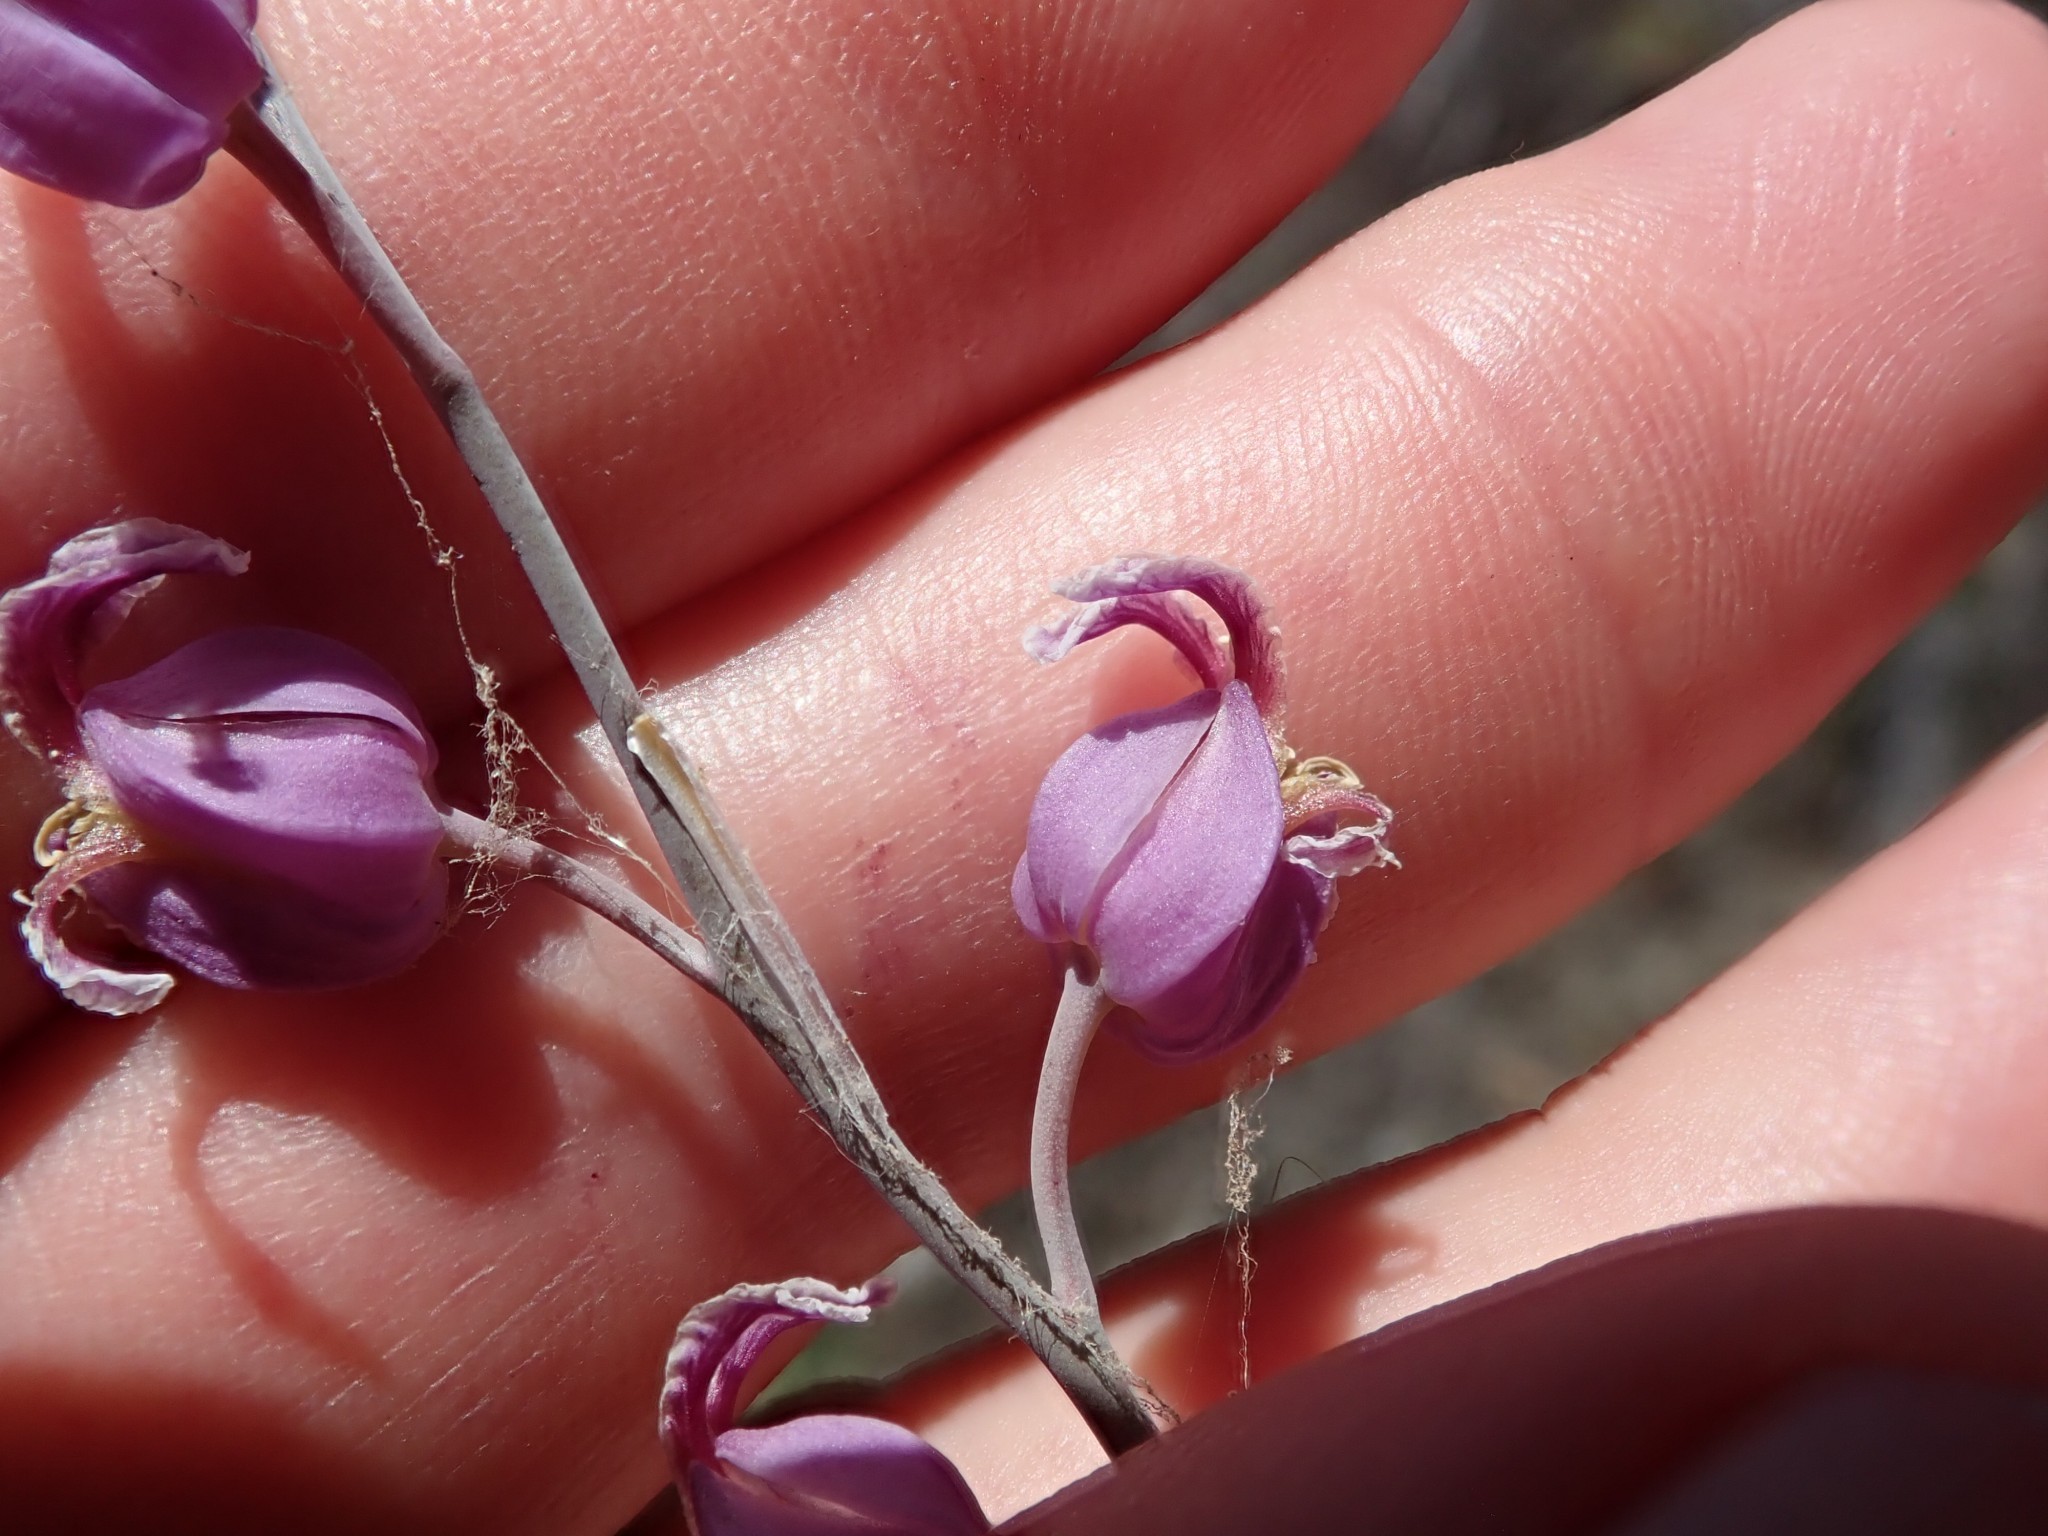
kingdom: Plantae
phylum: Tracheophyta
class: Magnoliopsida
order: Brassicales
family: Brassicaceae
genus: Streptanthus
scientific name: Streptanthus glandulosus
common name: Jewel-flower
